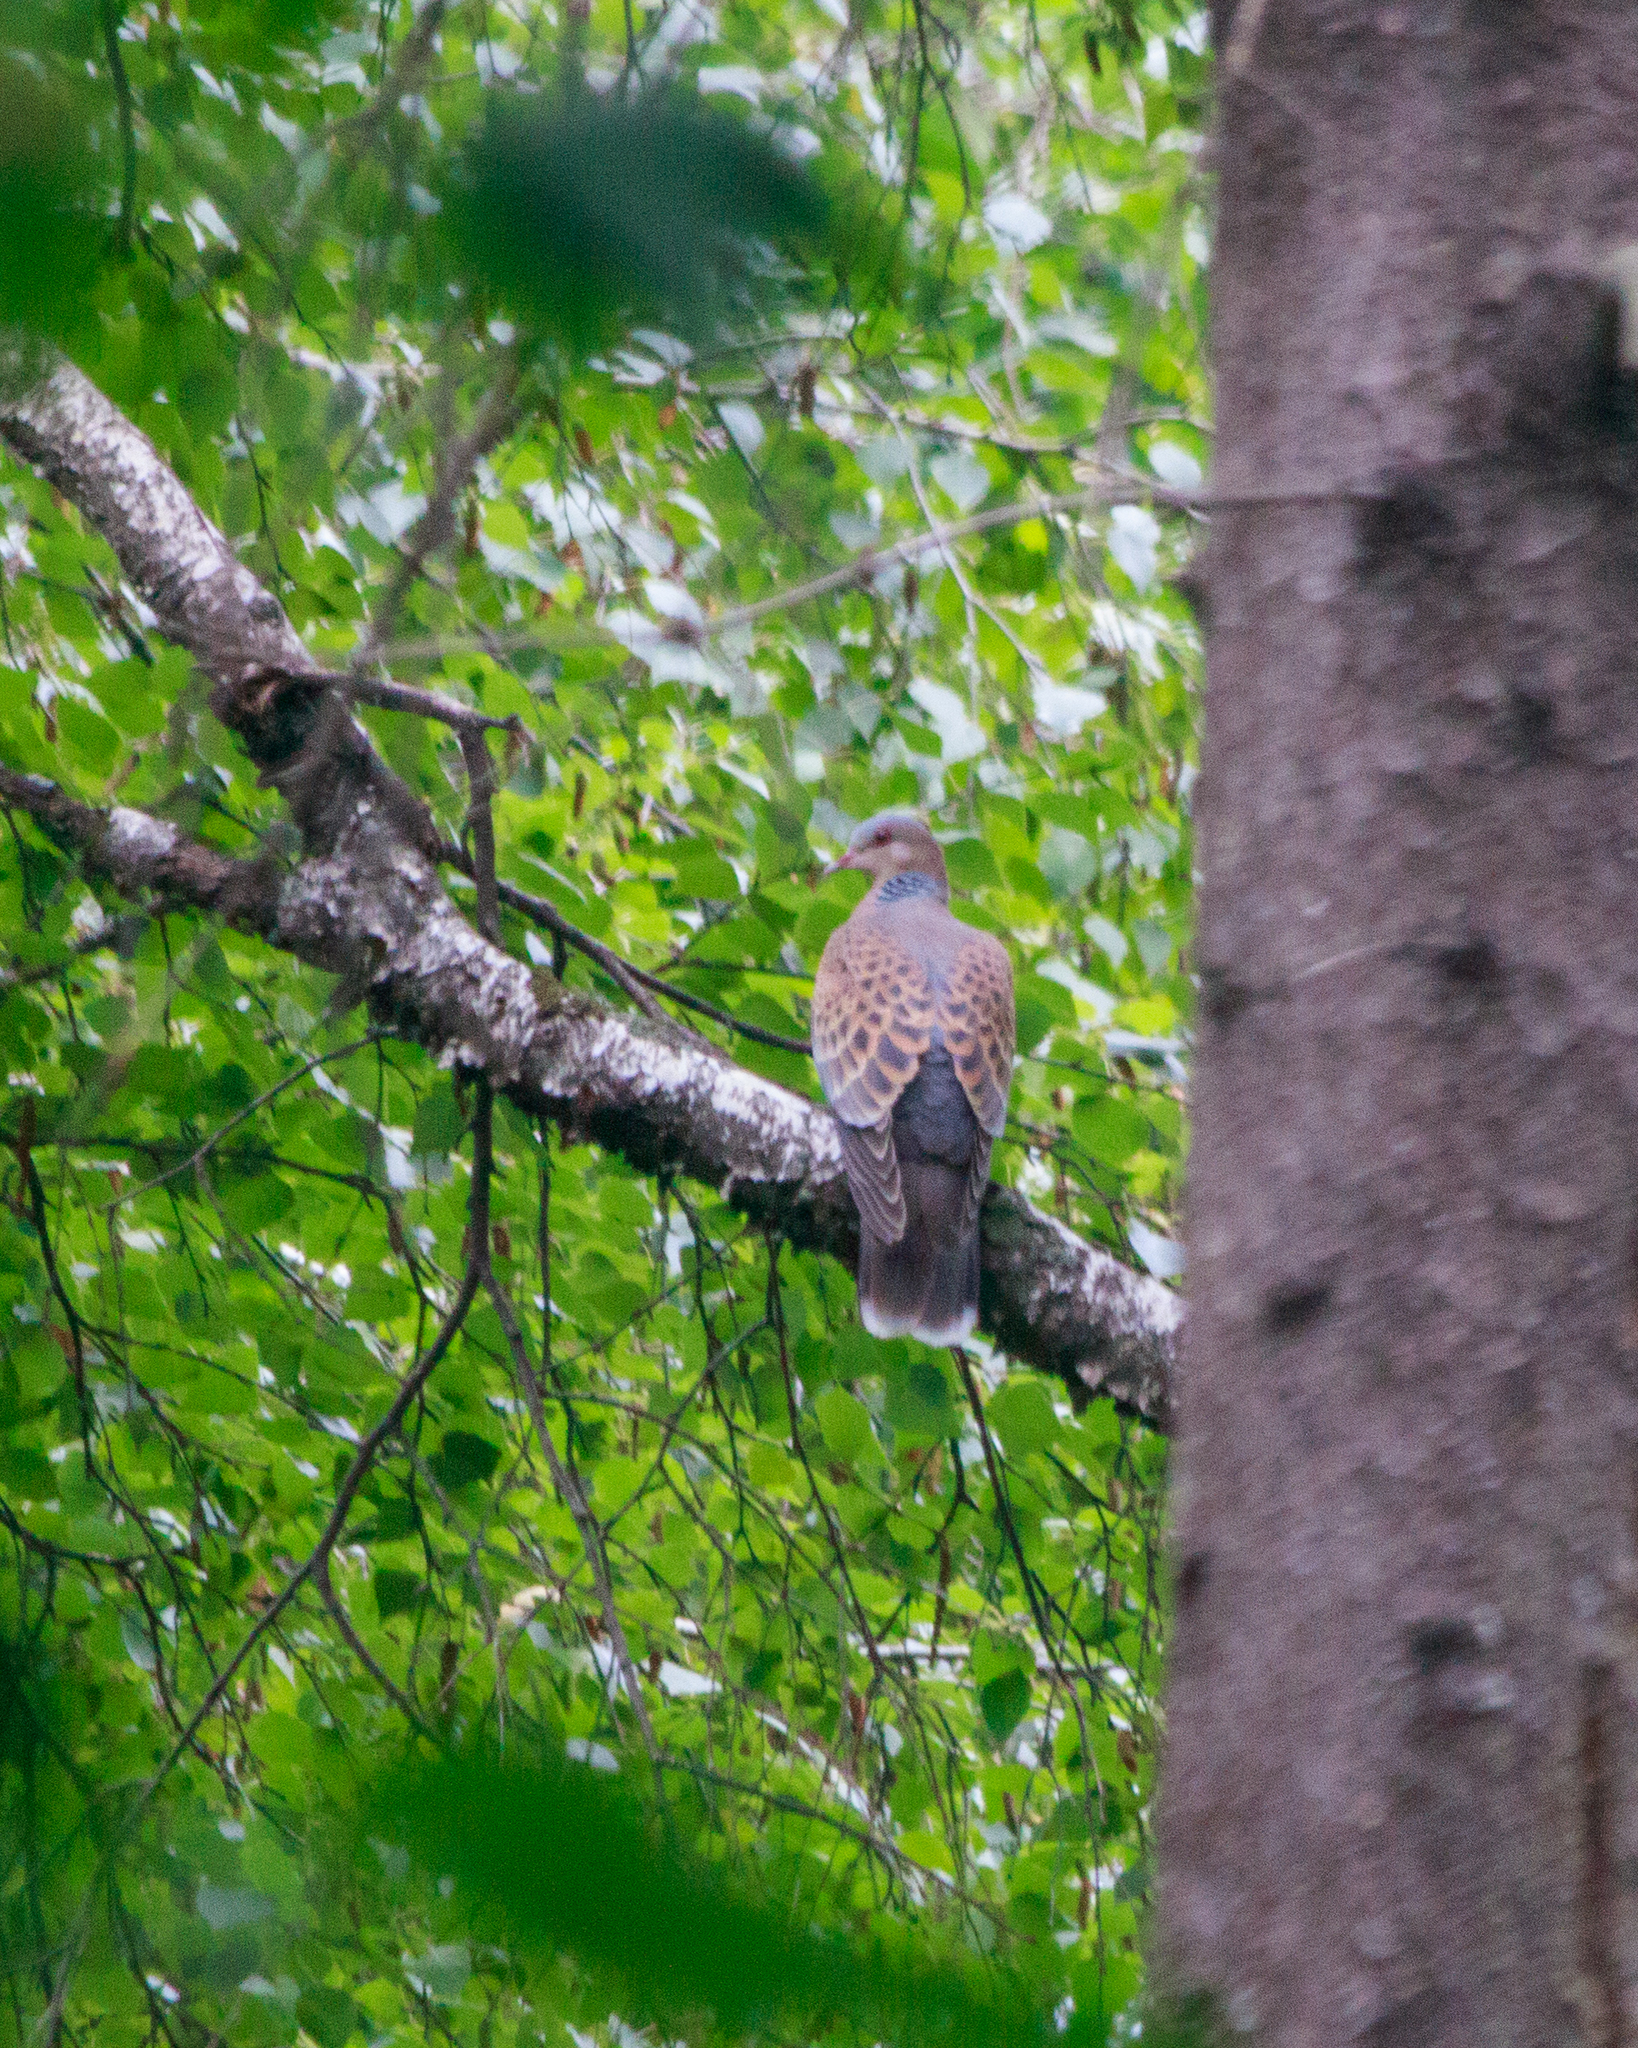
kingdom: Animalia
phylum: Chordata
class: Aves
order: Columbiformes
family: Columbidae
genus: Streptopelia
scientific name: Streptopelia orientalis
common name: Oriental turtle dove
